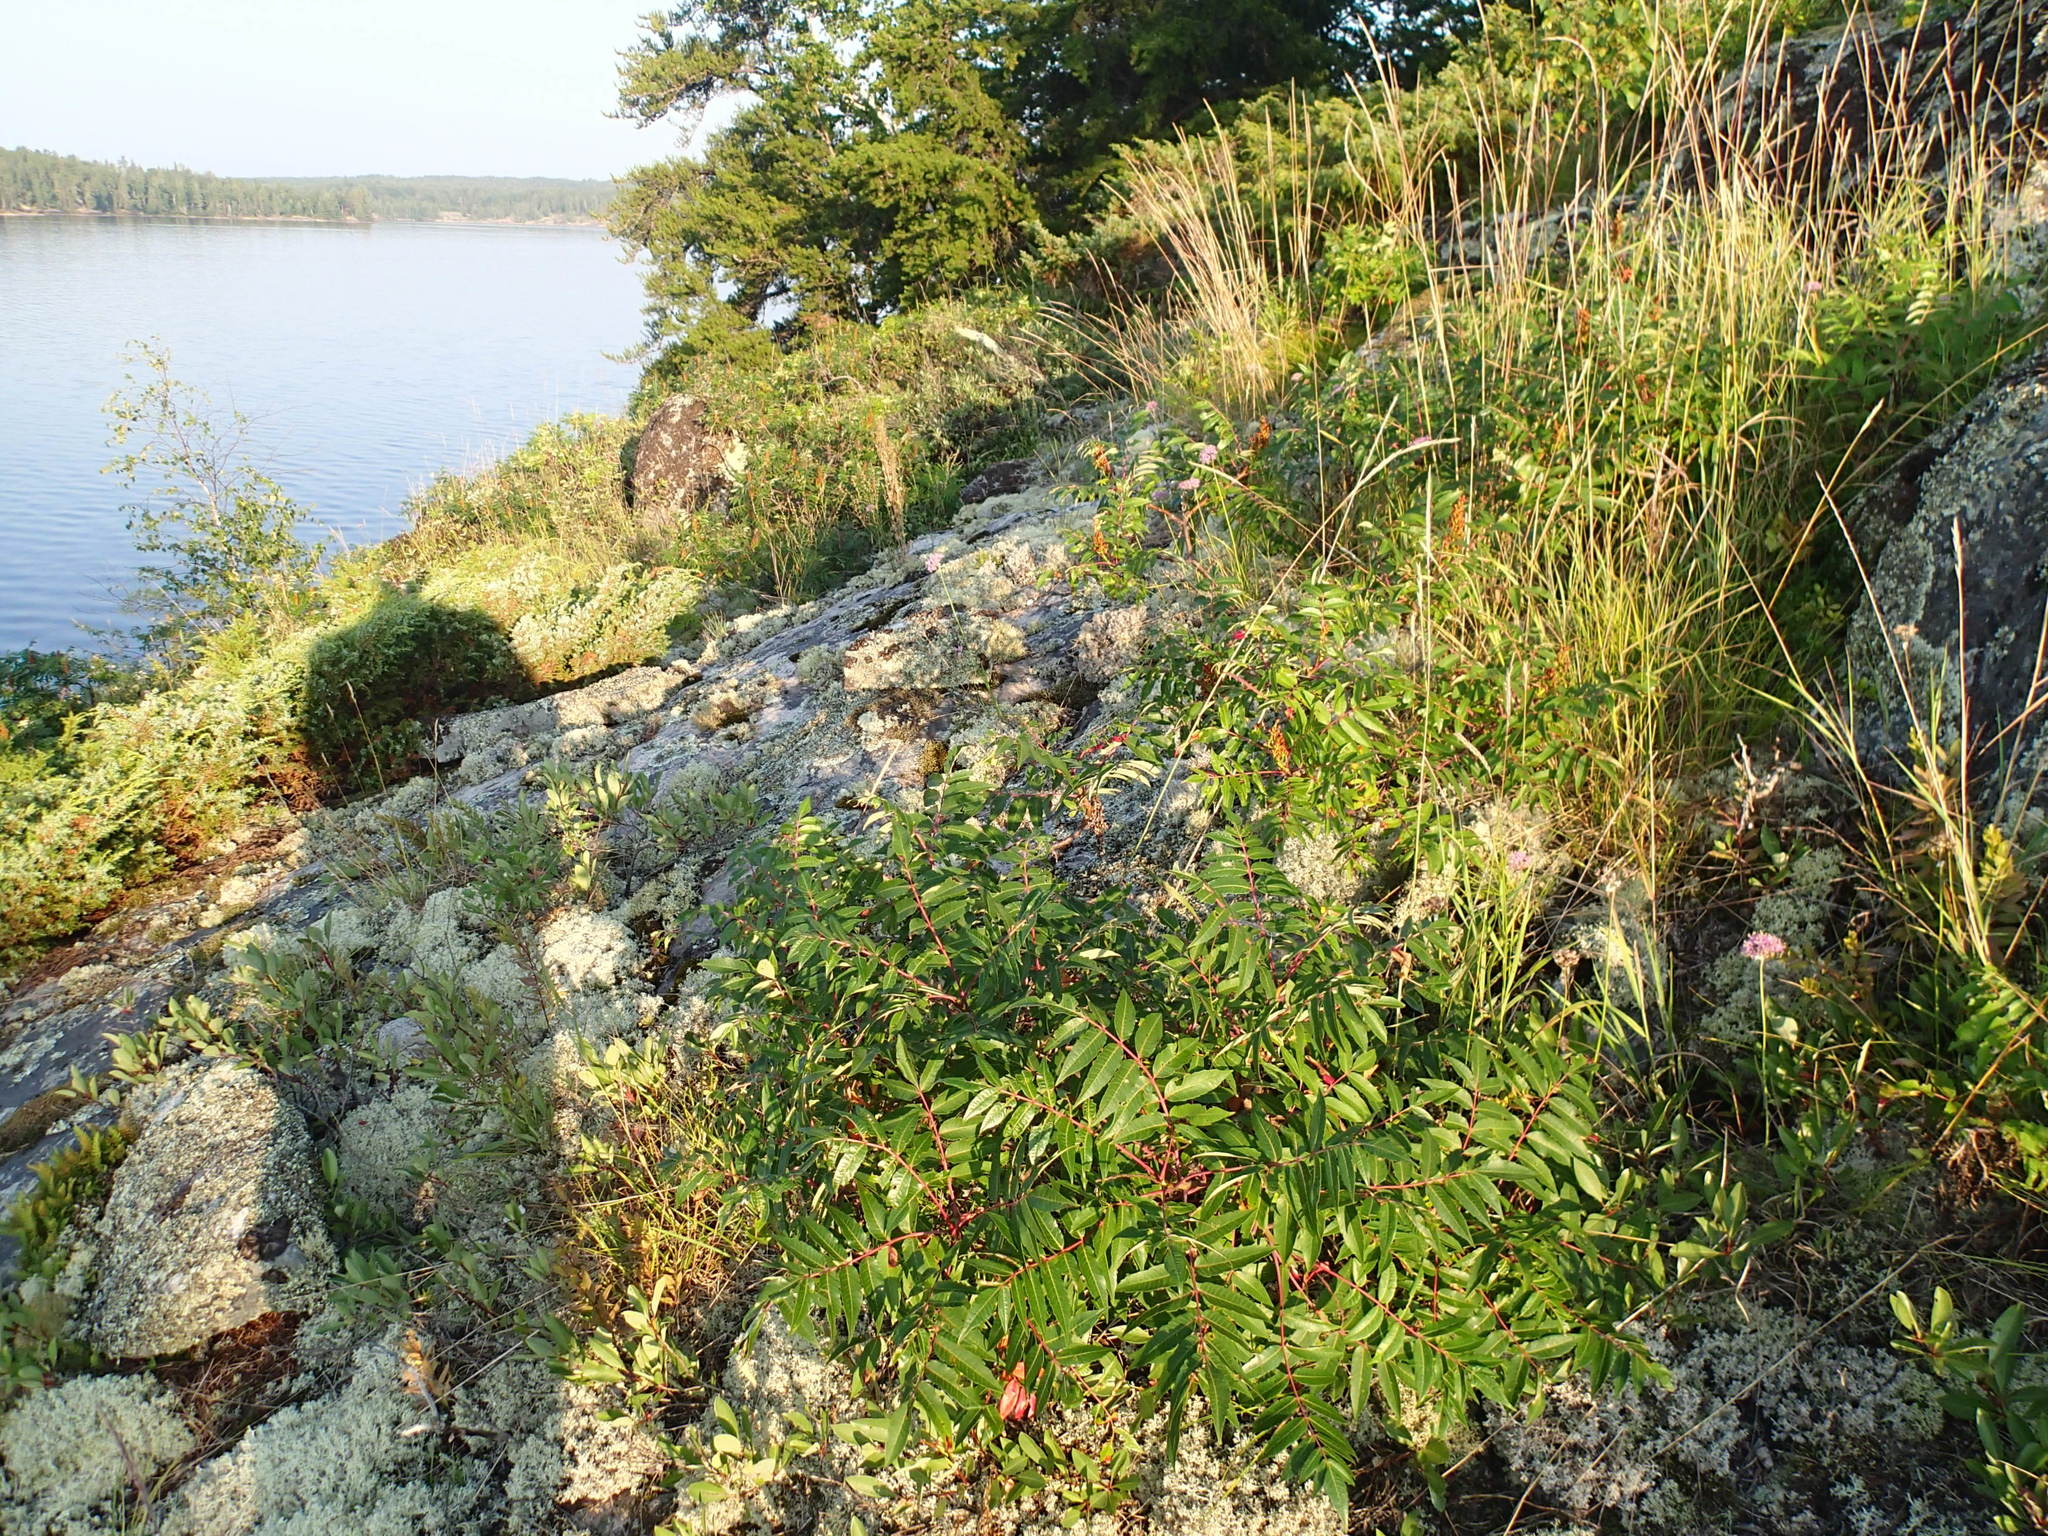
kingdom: Plantae
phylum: Tracheophyta
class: Magnoliopsida
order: Sapindales
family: Anacardiaceae
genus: Rhus
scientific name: Rhus glabra
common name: Scarlet sumac
